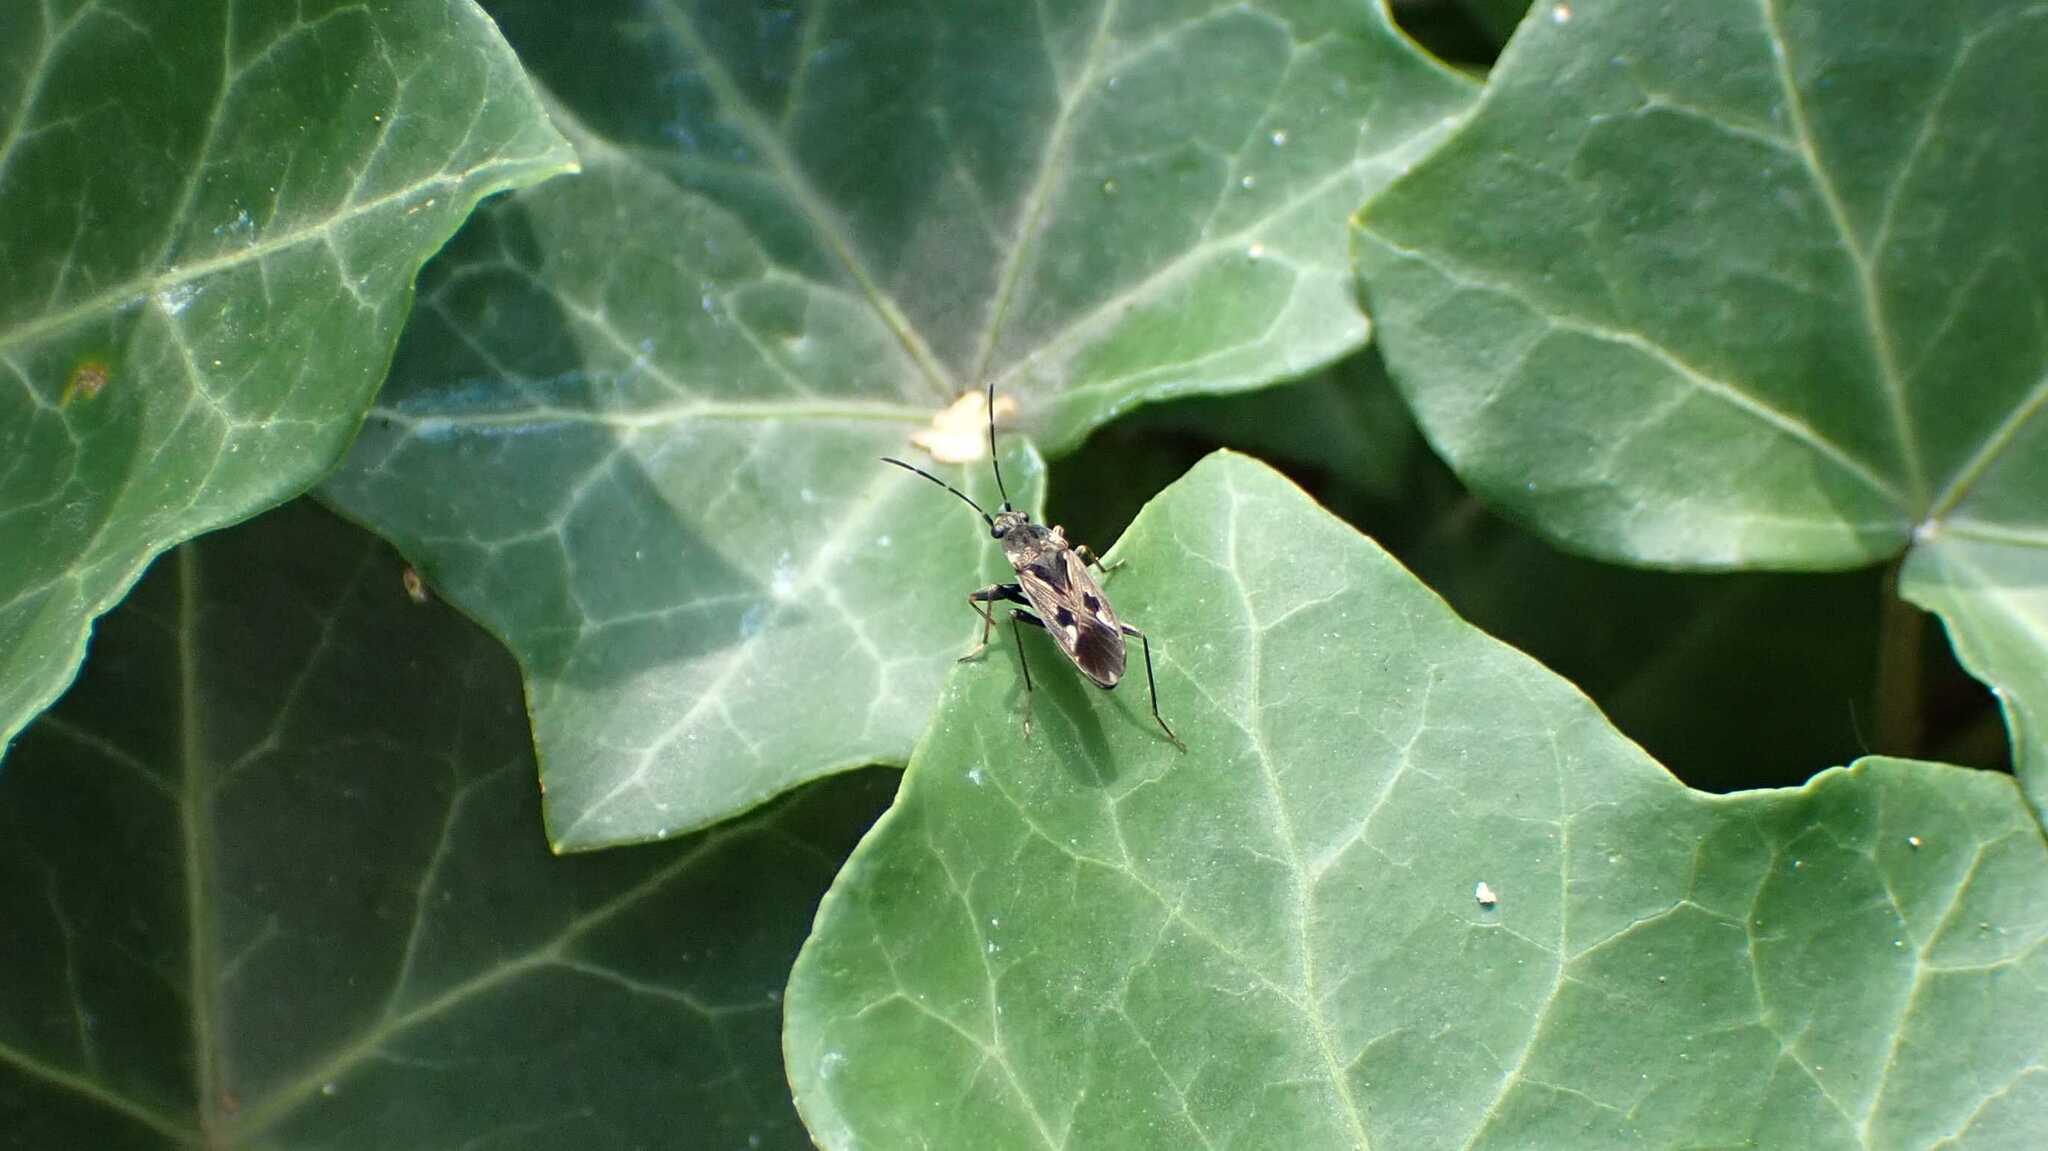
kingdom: Animalia
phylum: Arthropoda
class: Insecta
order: Hemiptera
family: Rhyparochromidae
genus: Rhyparochromus
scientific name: Rhyparochromus vulgaris
